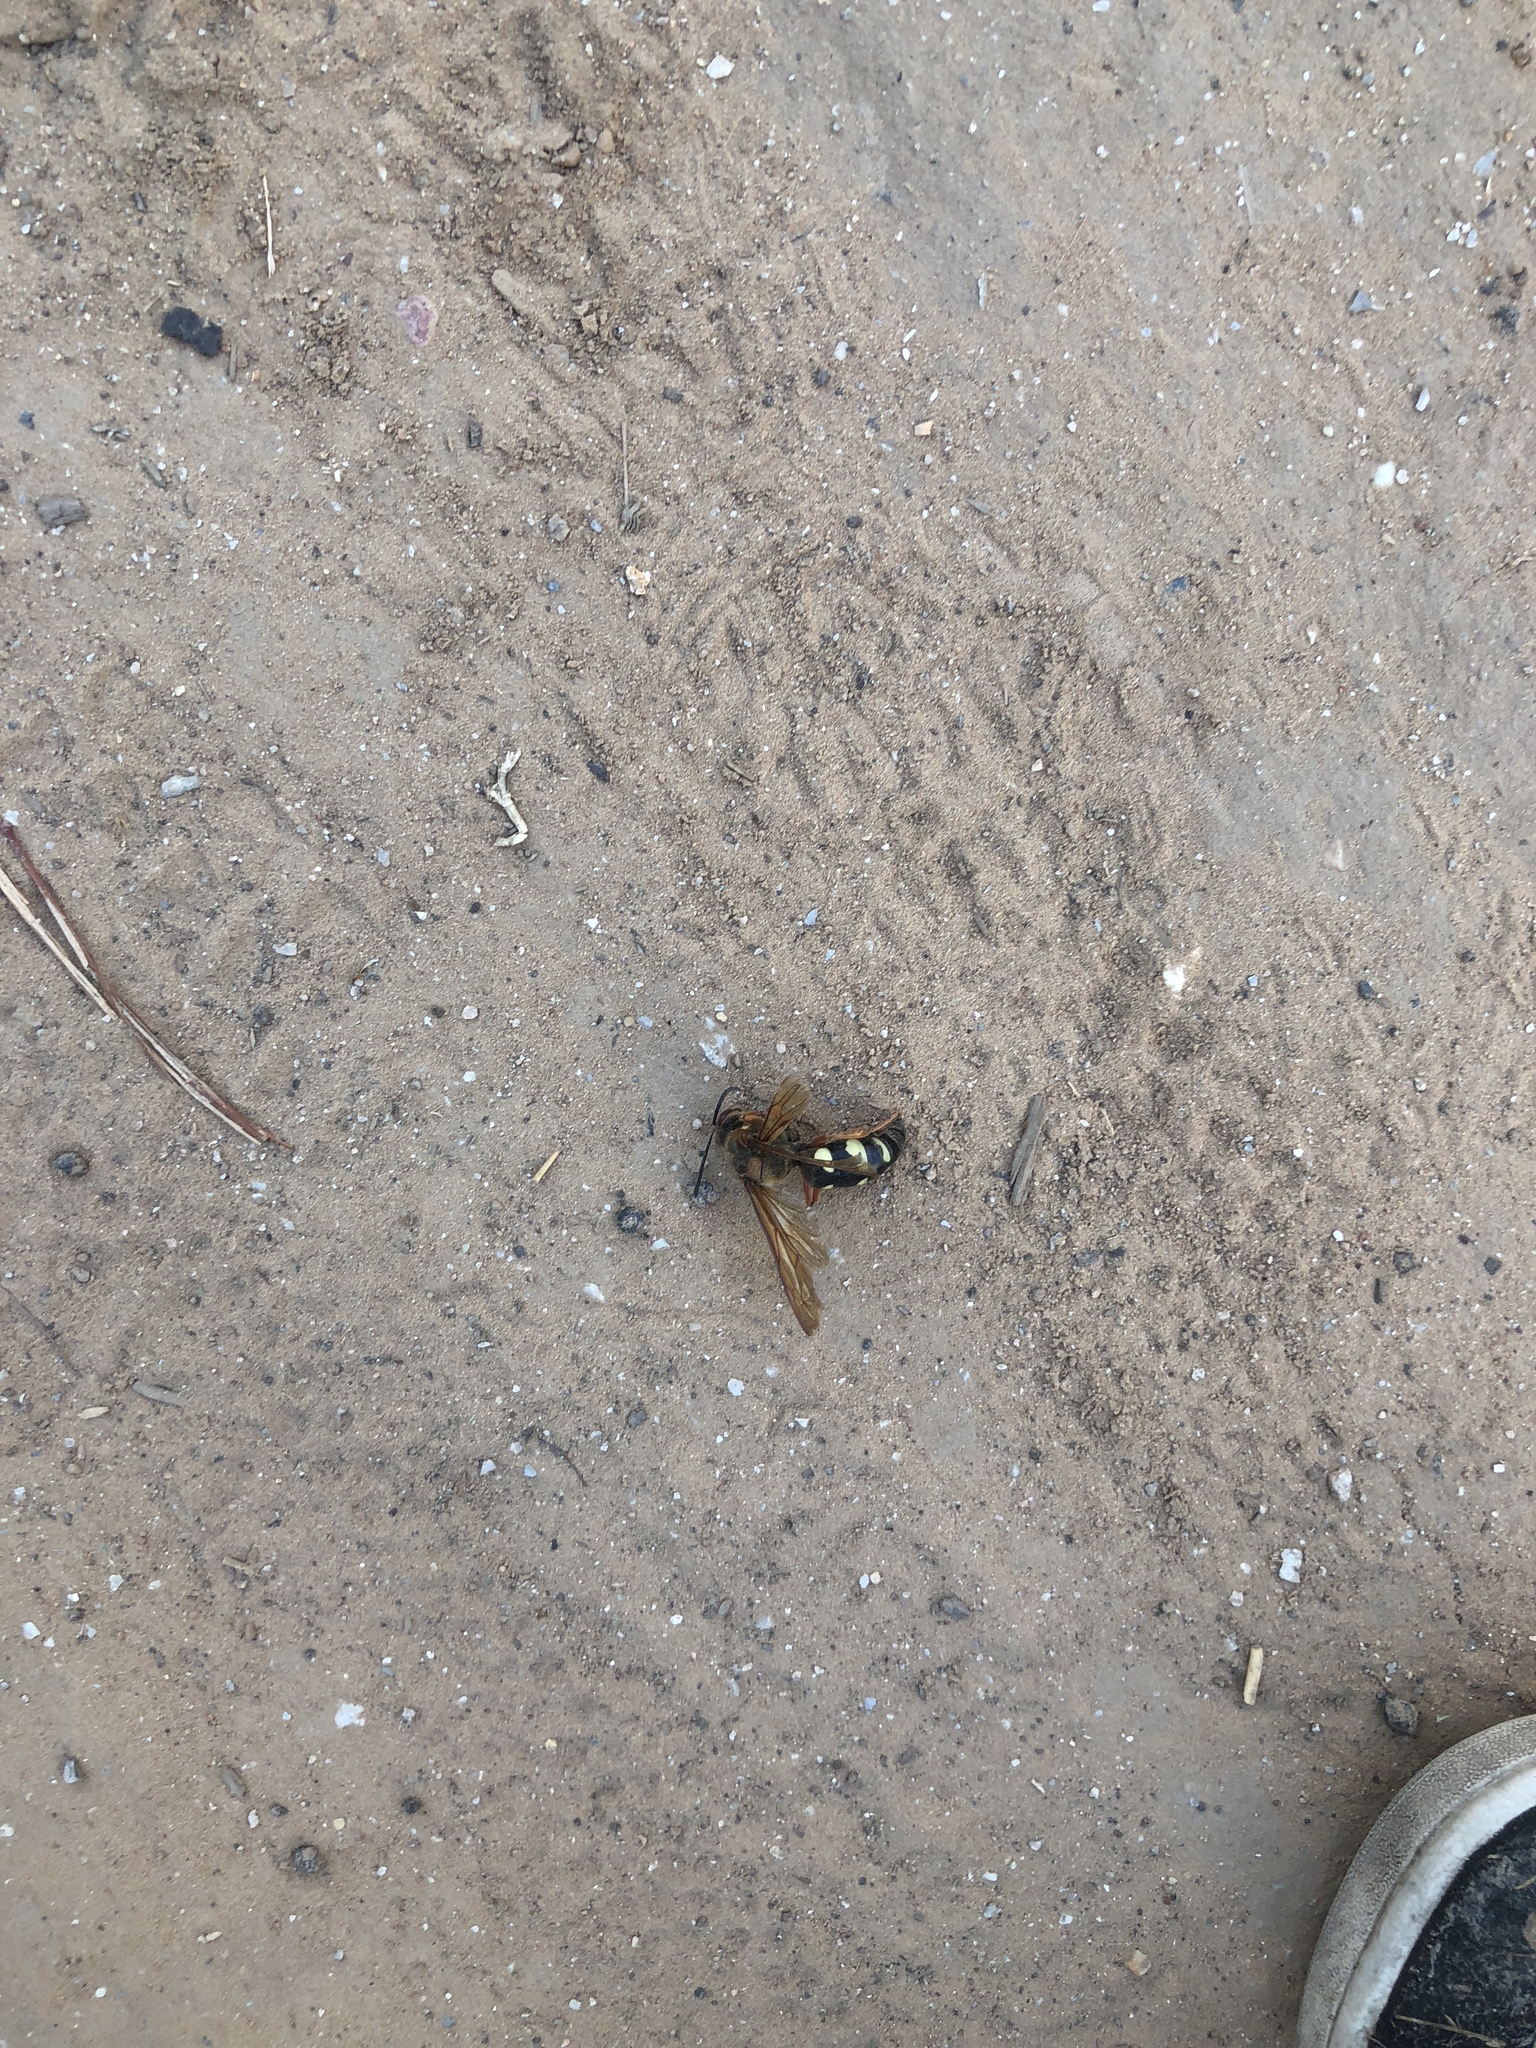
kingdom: Animalia
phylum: Arthropoda
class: Insecta
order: Hymenoptera
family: Crabronidae
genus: Sphecius
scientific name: Sphecius speciosus
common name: Cicada killer
